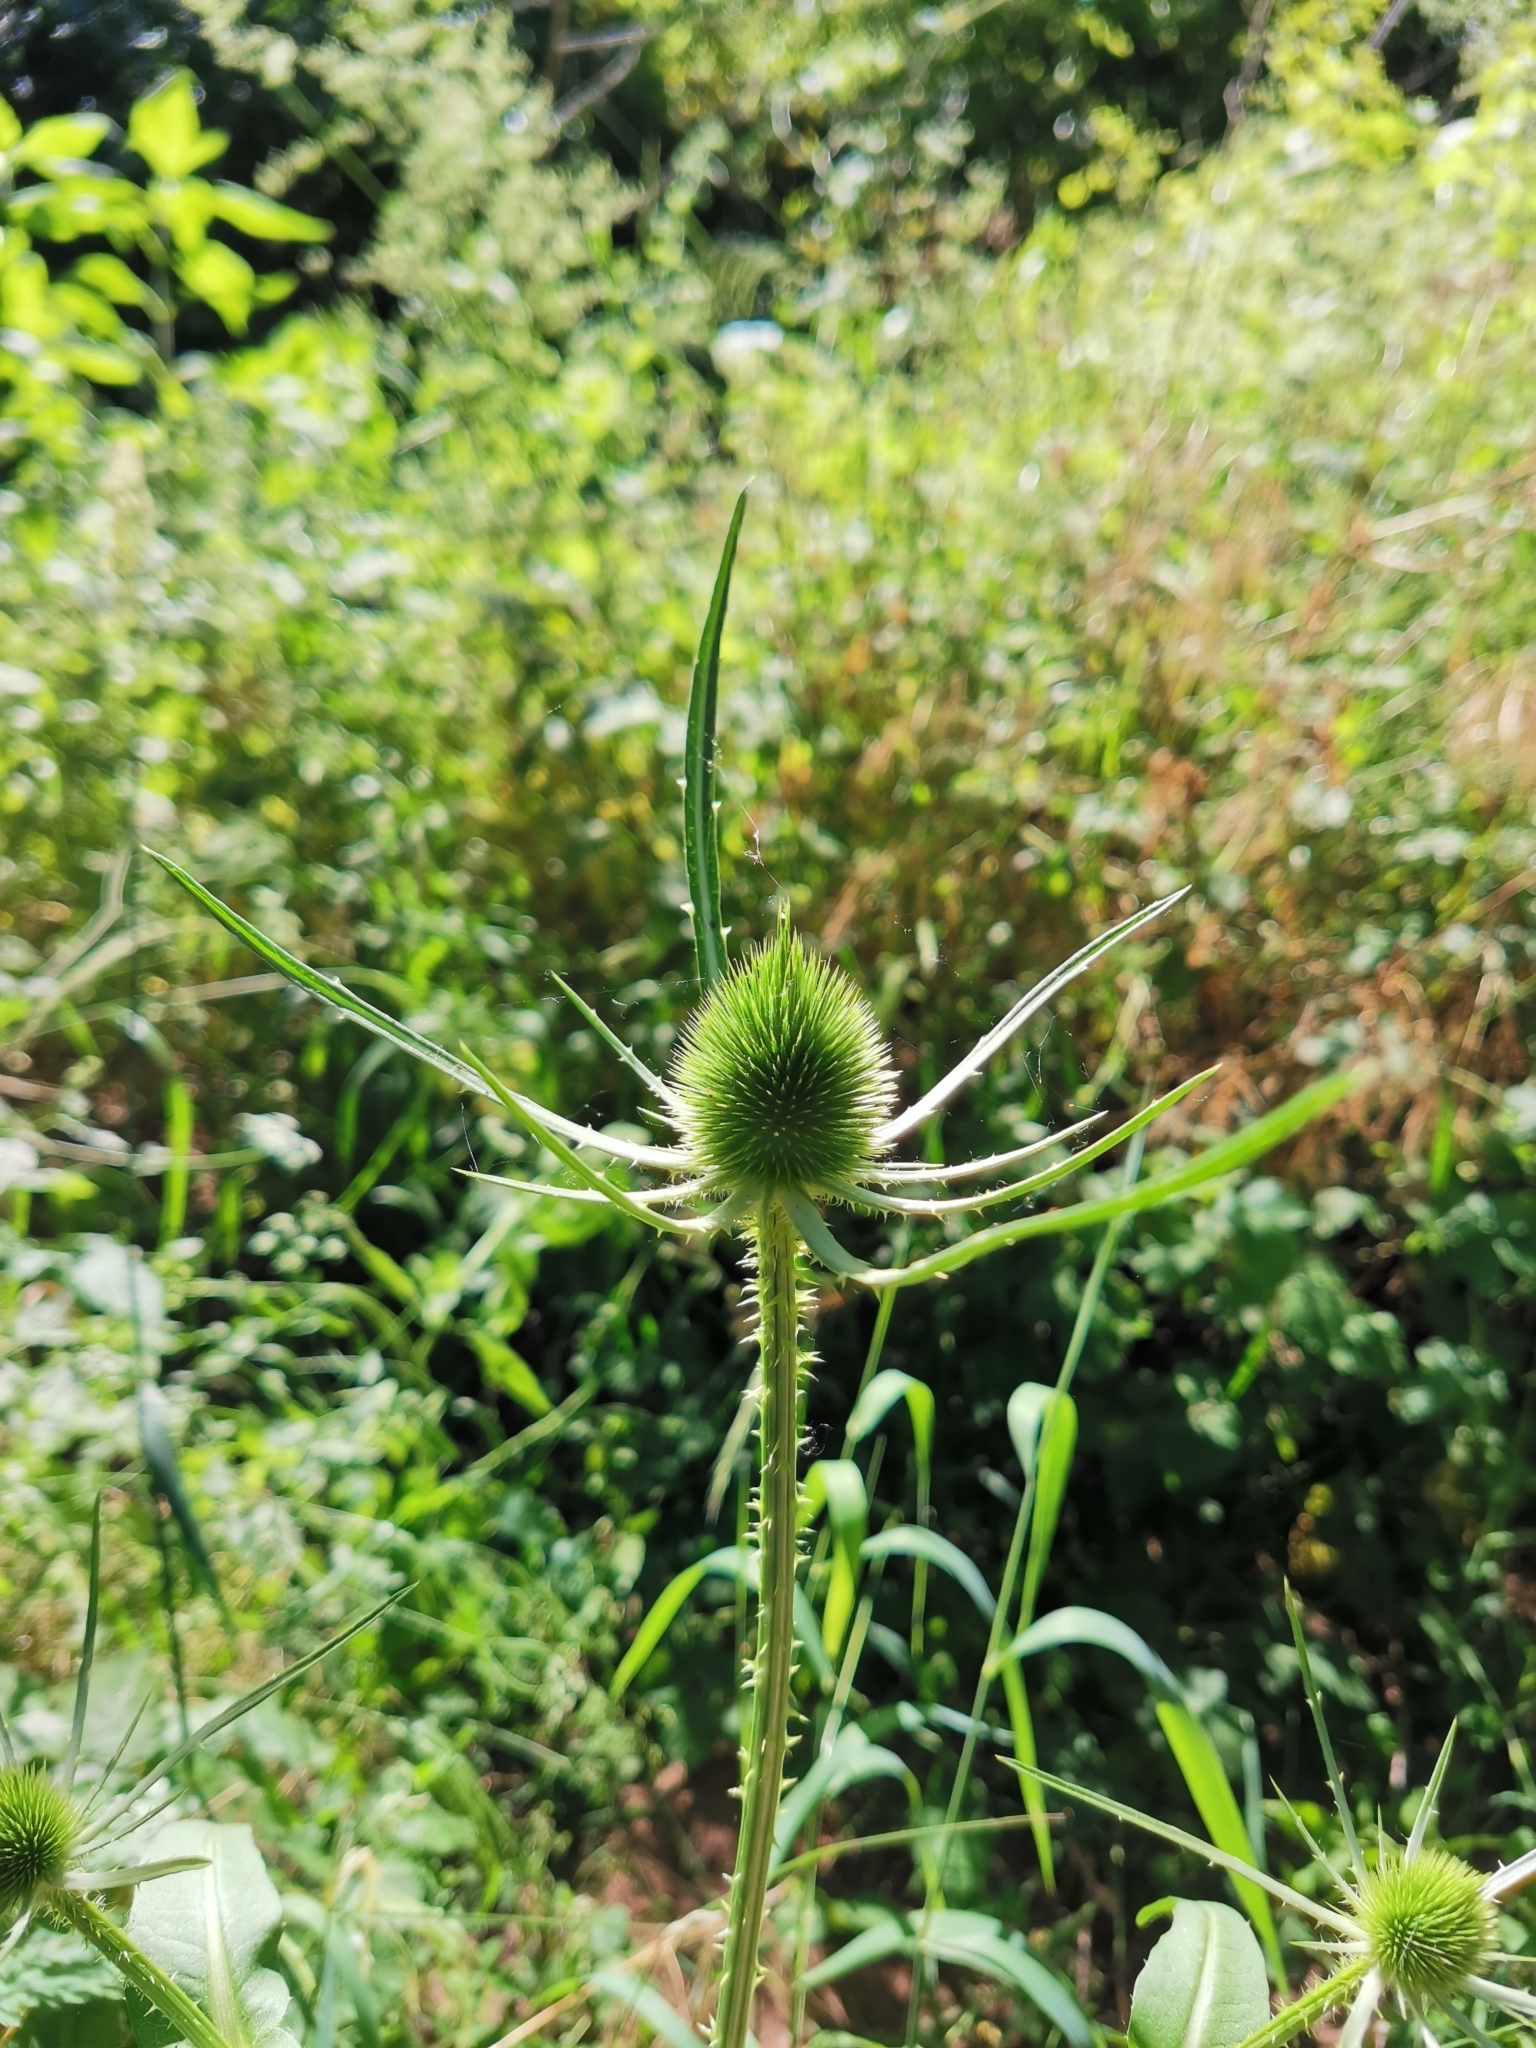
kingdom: Plantae
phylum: Tracheophyta
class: Magnoliopsida
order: Dipsacales
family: Caprifoliaceae
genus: Dipsacus
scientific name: Dipsacus fullonum
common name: Teasel
